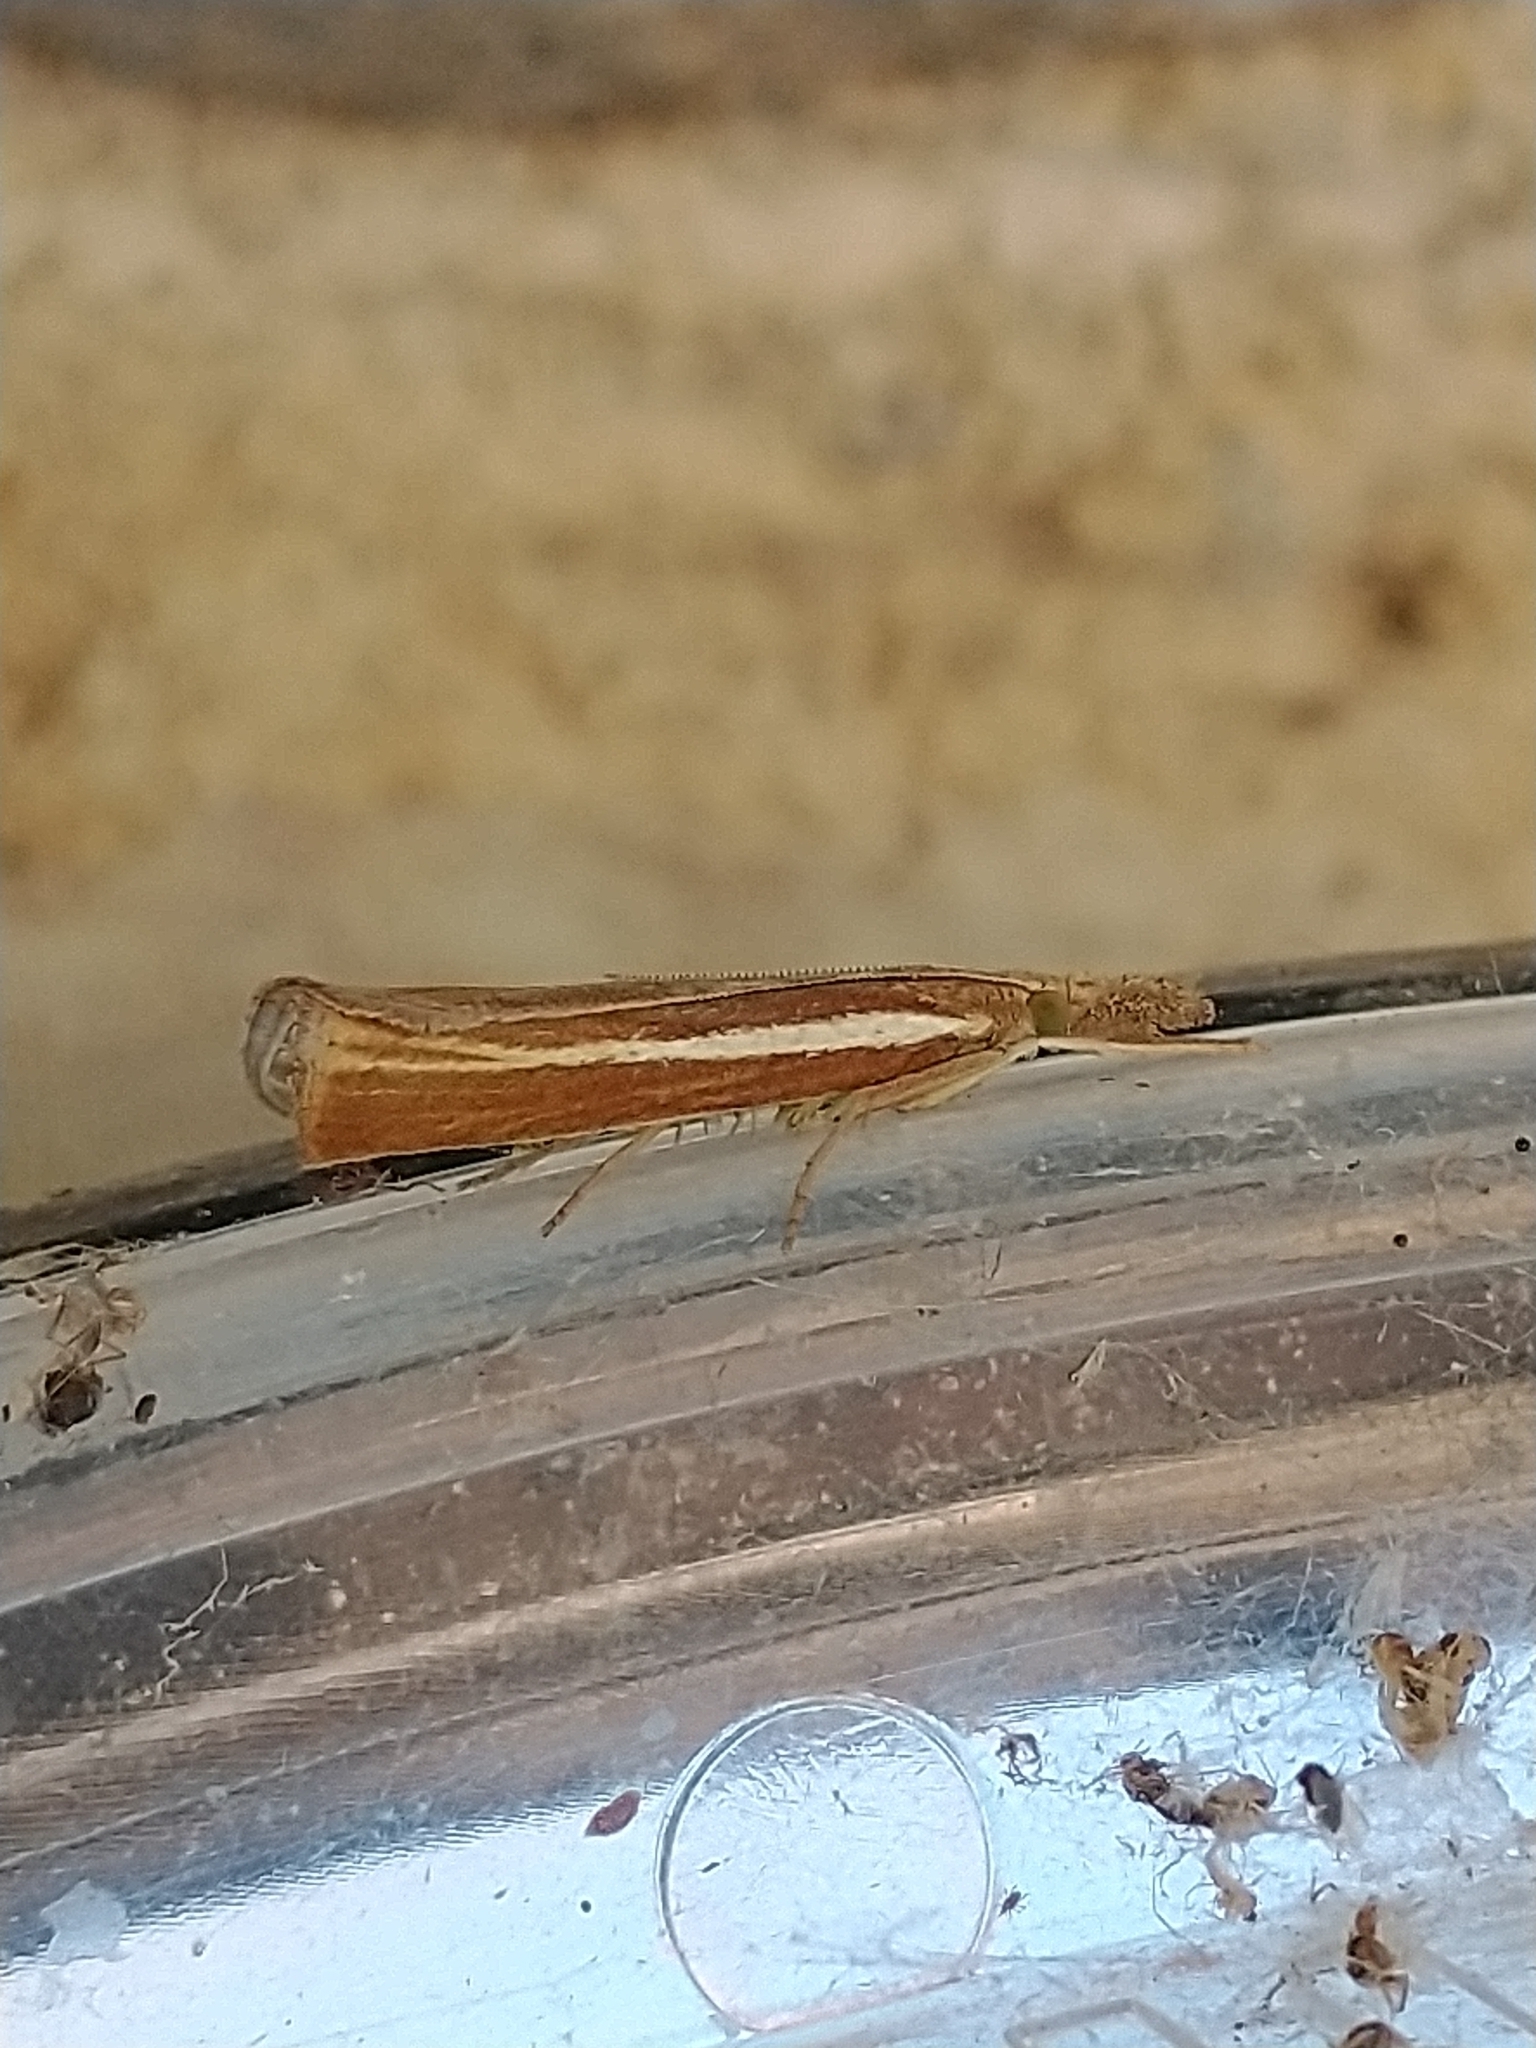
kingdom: Animalia
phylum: Arthropoda
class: Insecta
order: Lepidoptera
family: Crambidae
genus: Agriphila
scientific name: Agriphila tristellus
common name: Common grass-veneer
